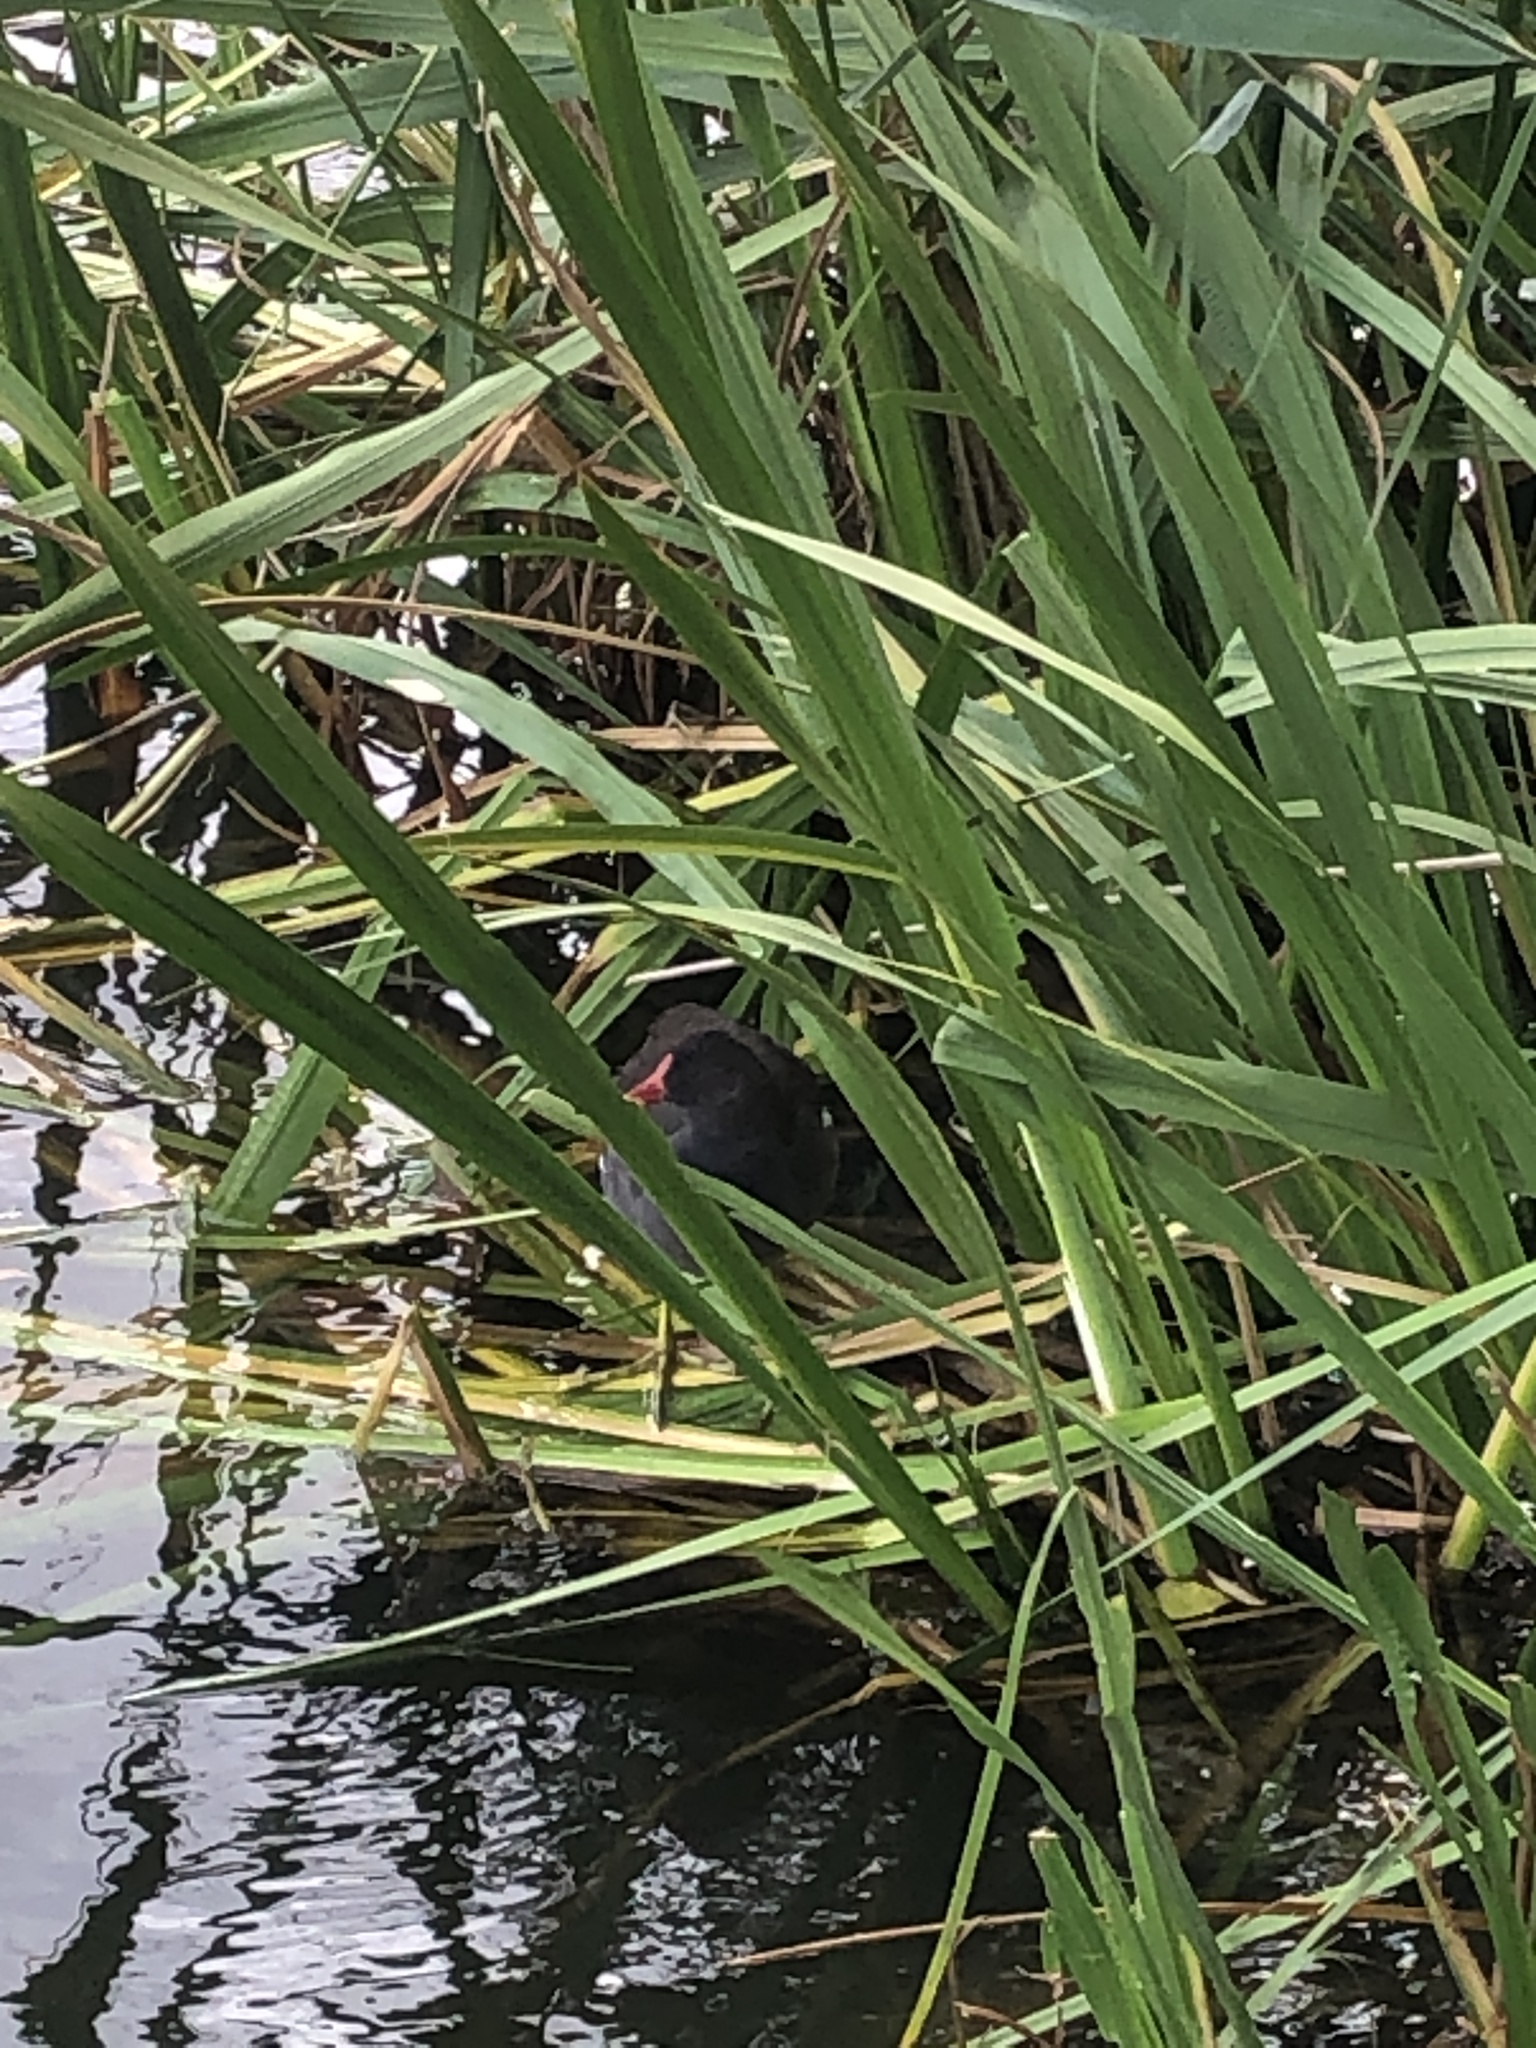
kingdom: Animalia
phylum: Chordata
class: Aves
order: Gruiformes
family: Rallidae
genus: Gallinula
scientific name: Gallinula chloropus
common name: Common moorhen
